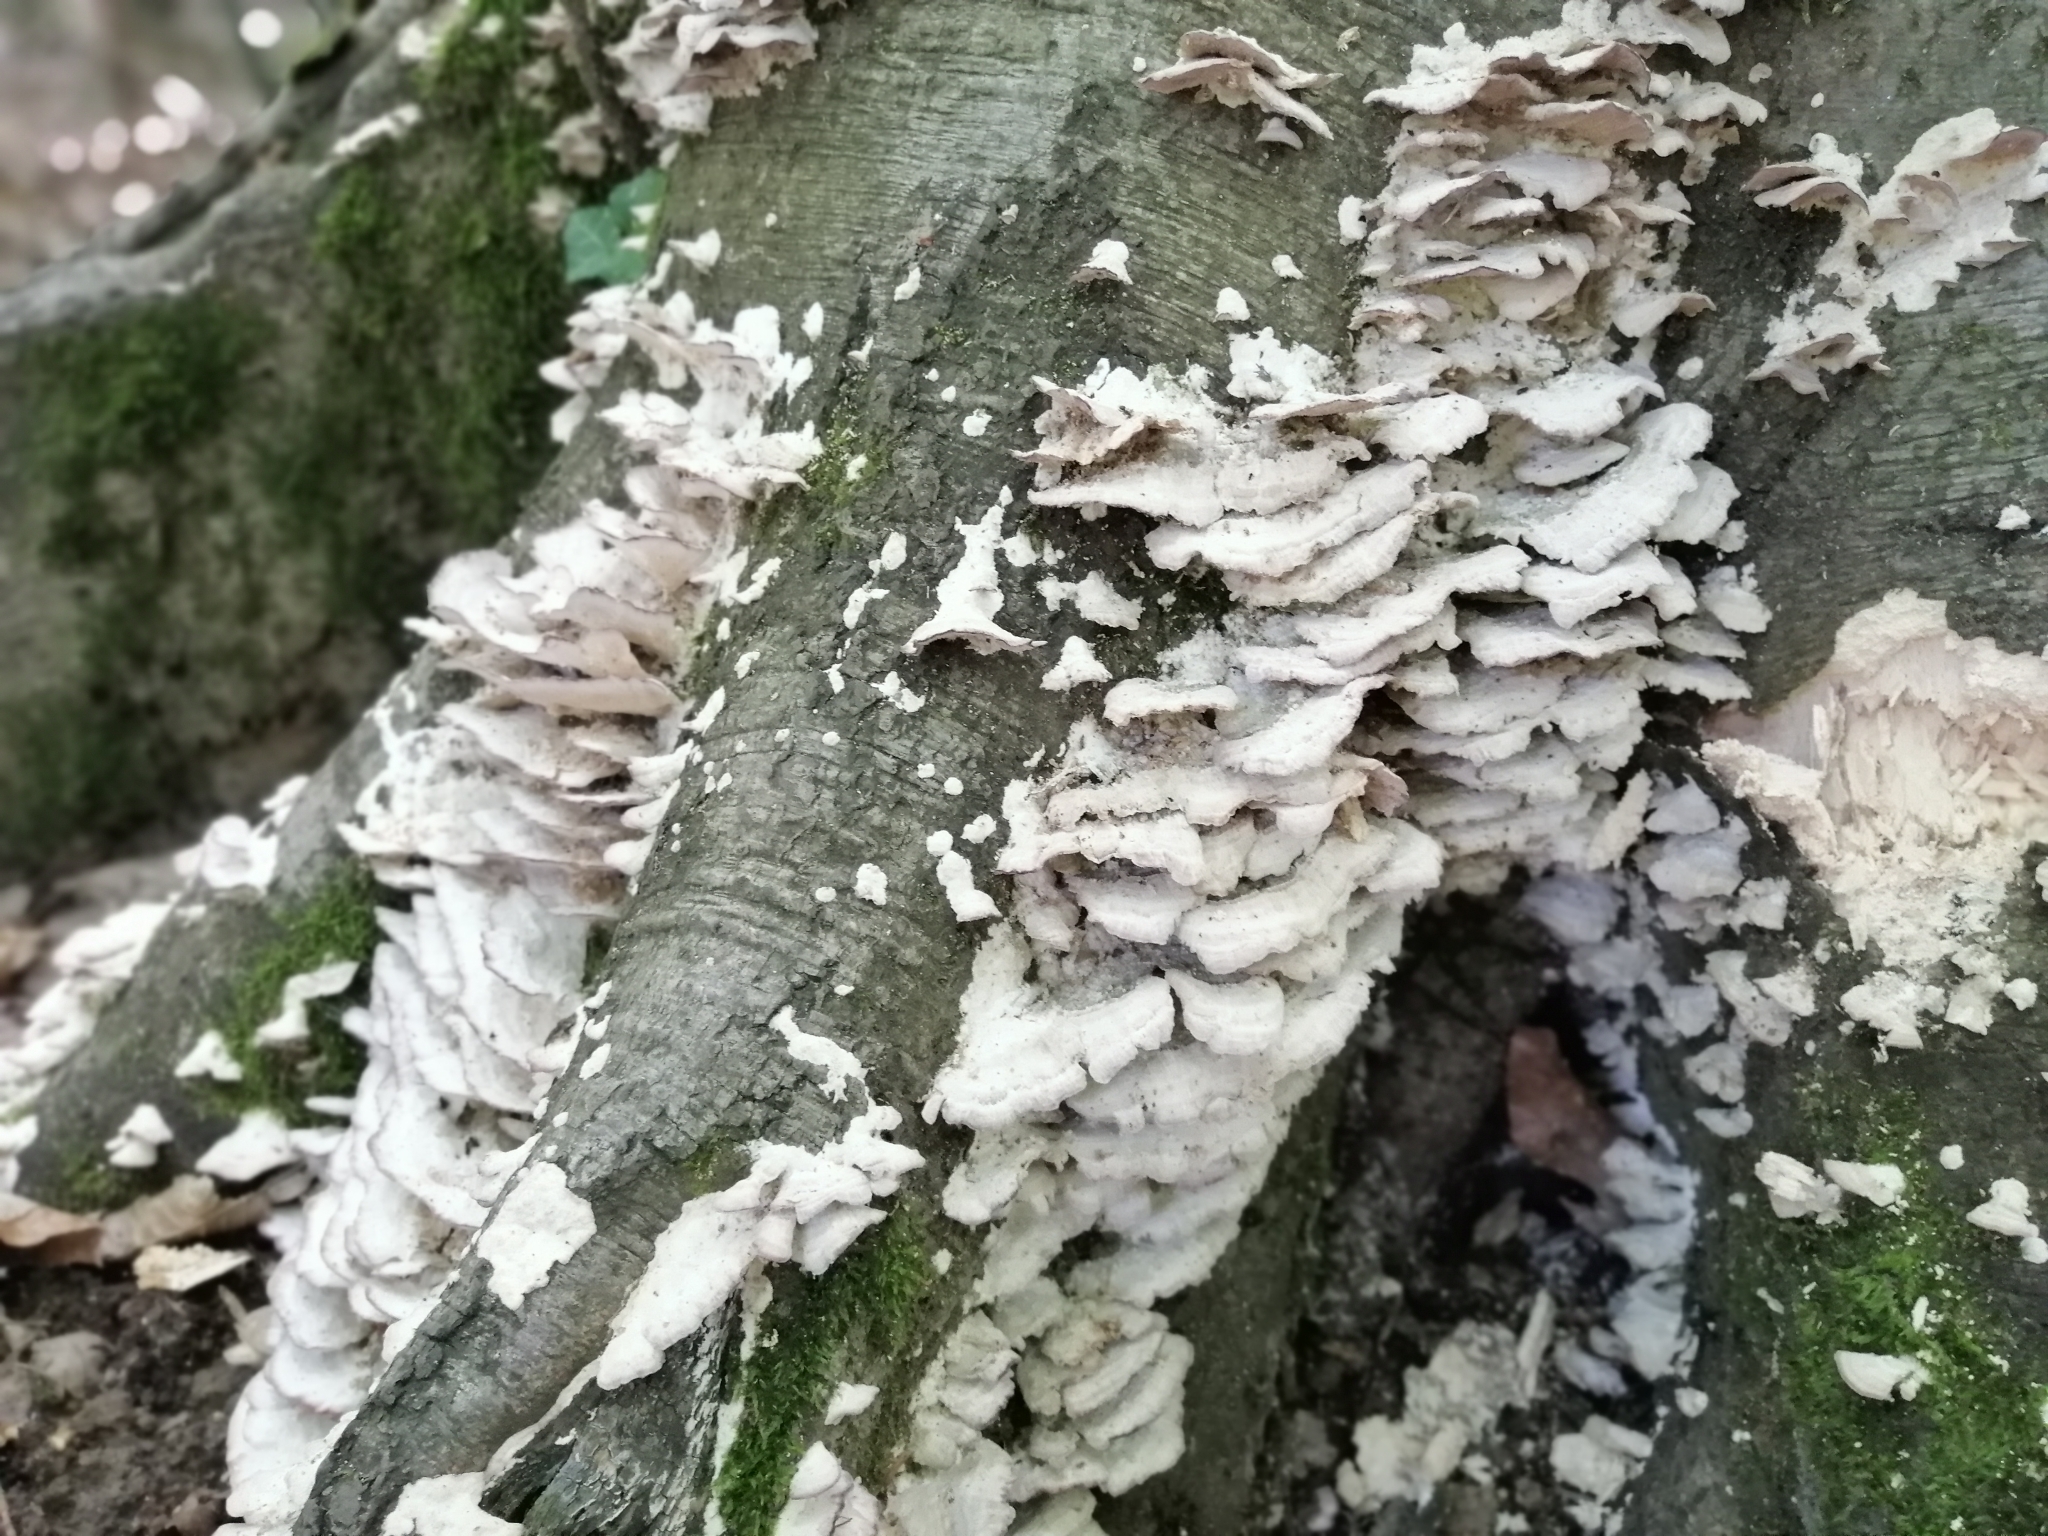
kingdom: Fungi
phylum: Basidiomycota
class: Agaricomycetes
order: Hymenochaetales
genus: Trichaptum
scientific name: Trichaptum biforme
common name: Violet-toothed polypore
